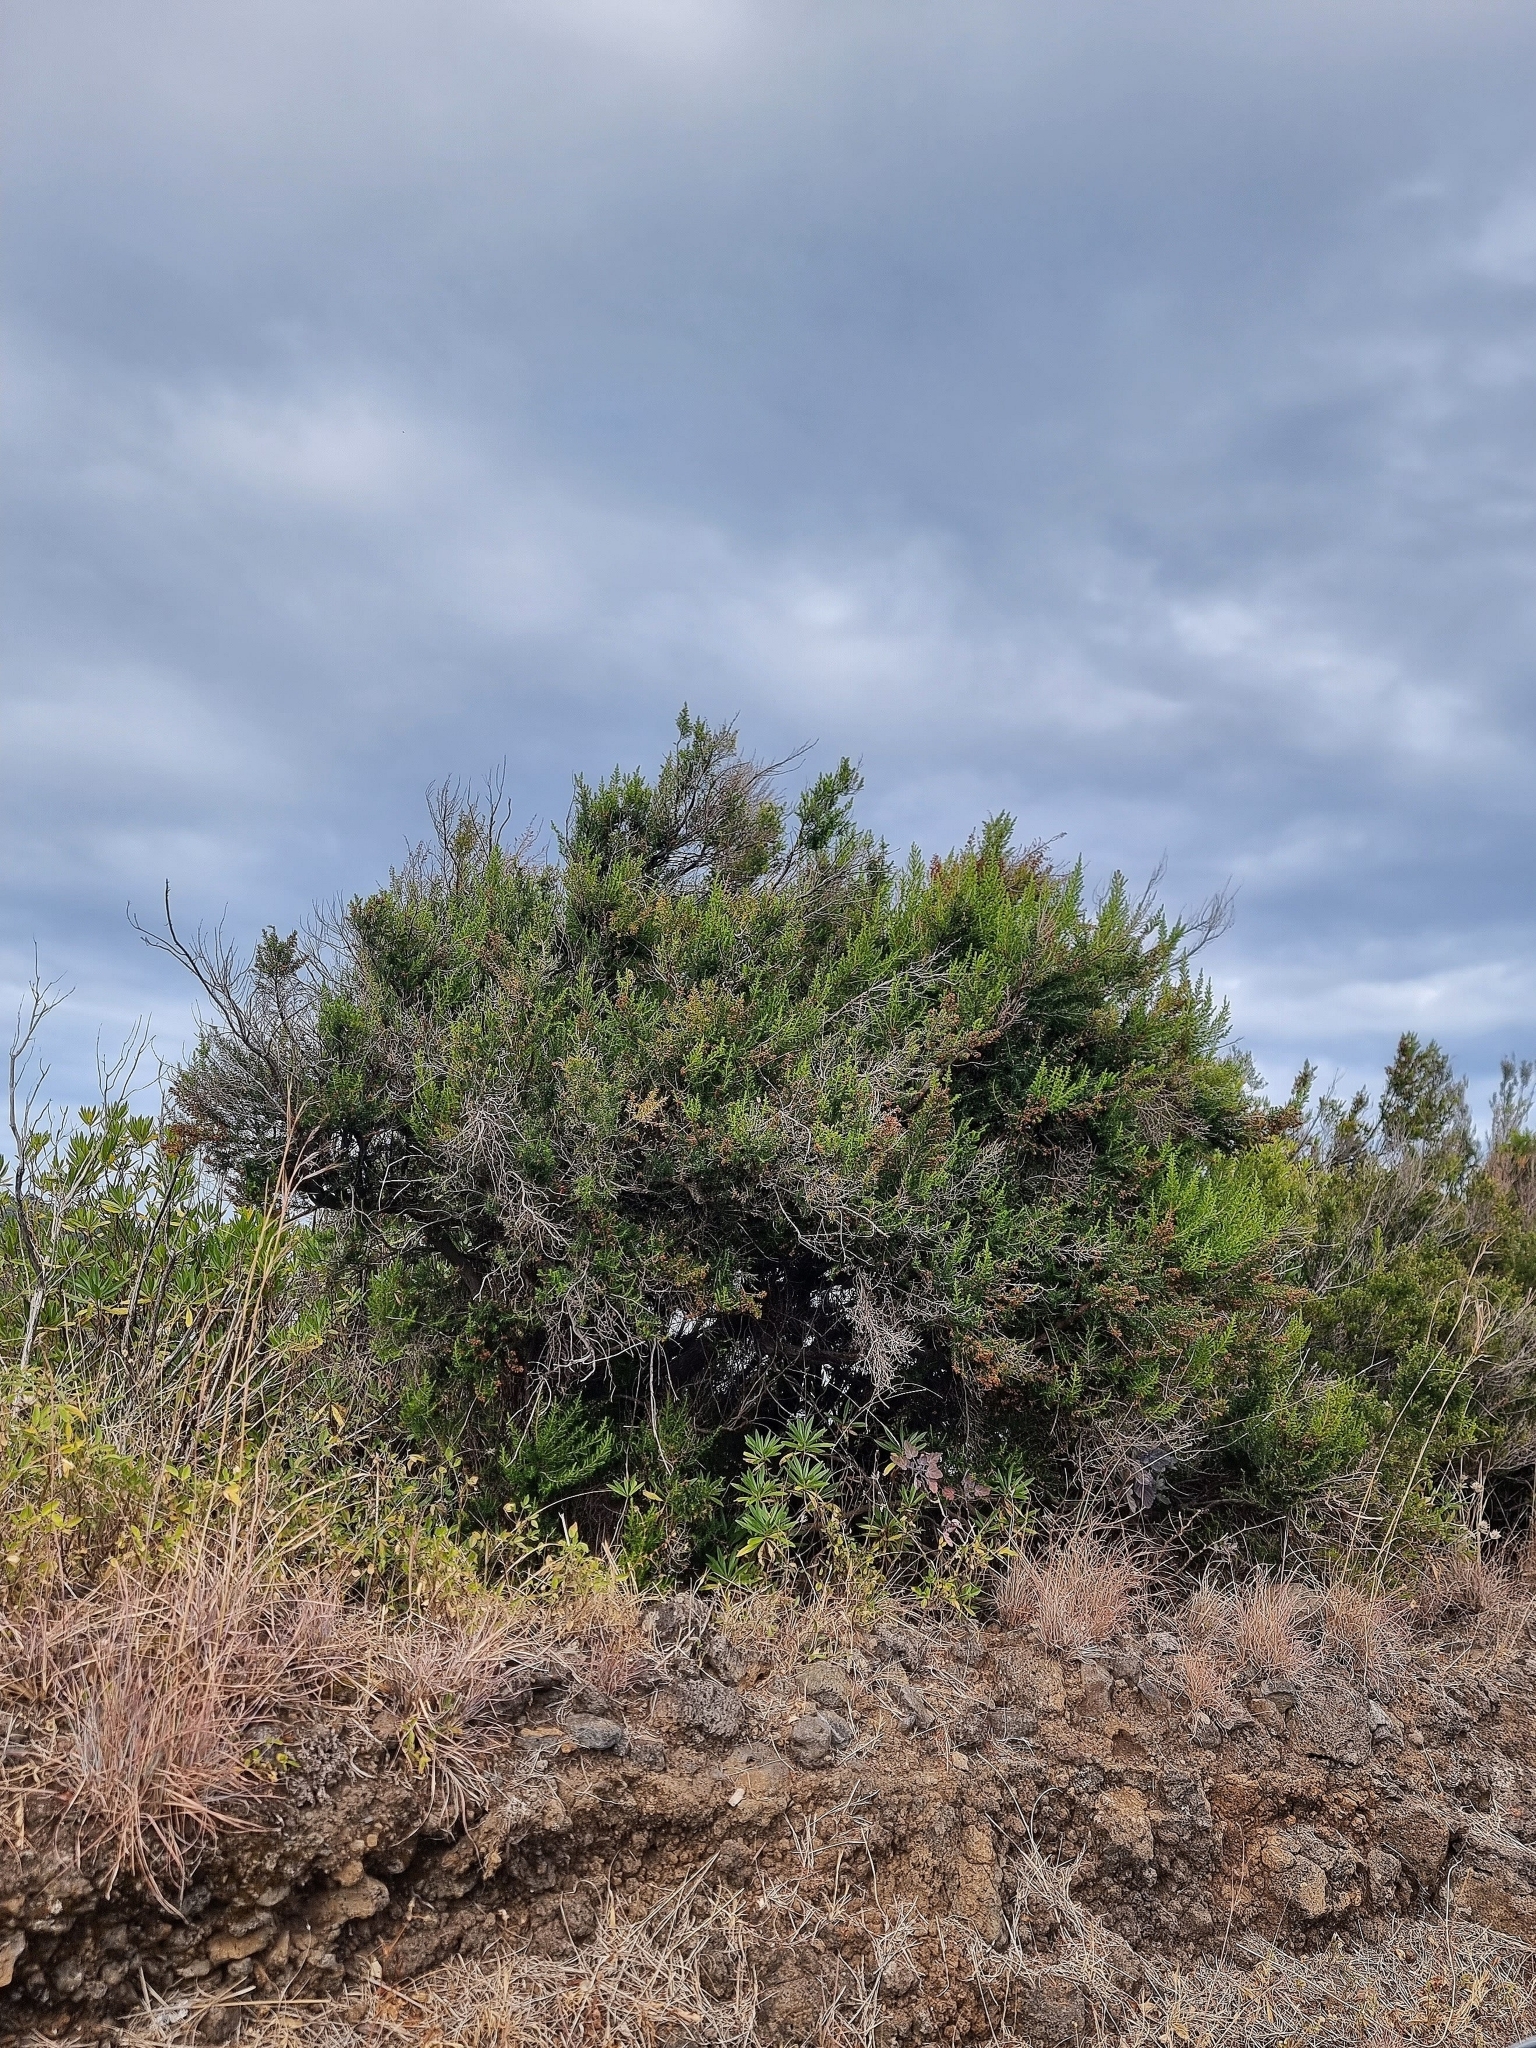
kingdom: Plantae
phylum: Tracheophyta
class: Magnoliopsida
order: Ericales
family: Ericaceae
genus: Erica
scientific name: Erica canariensis
